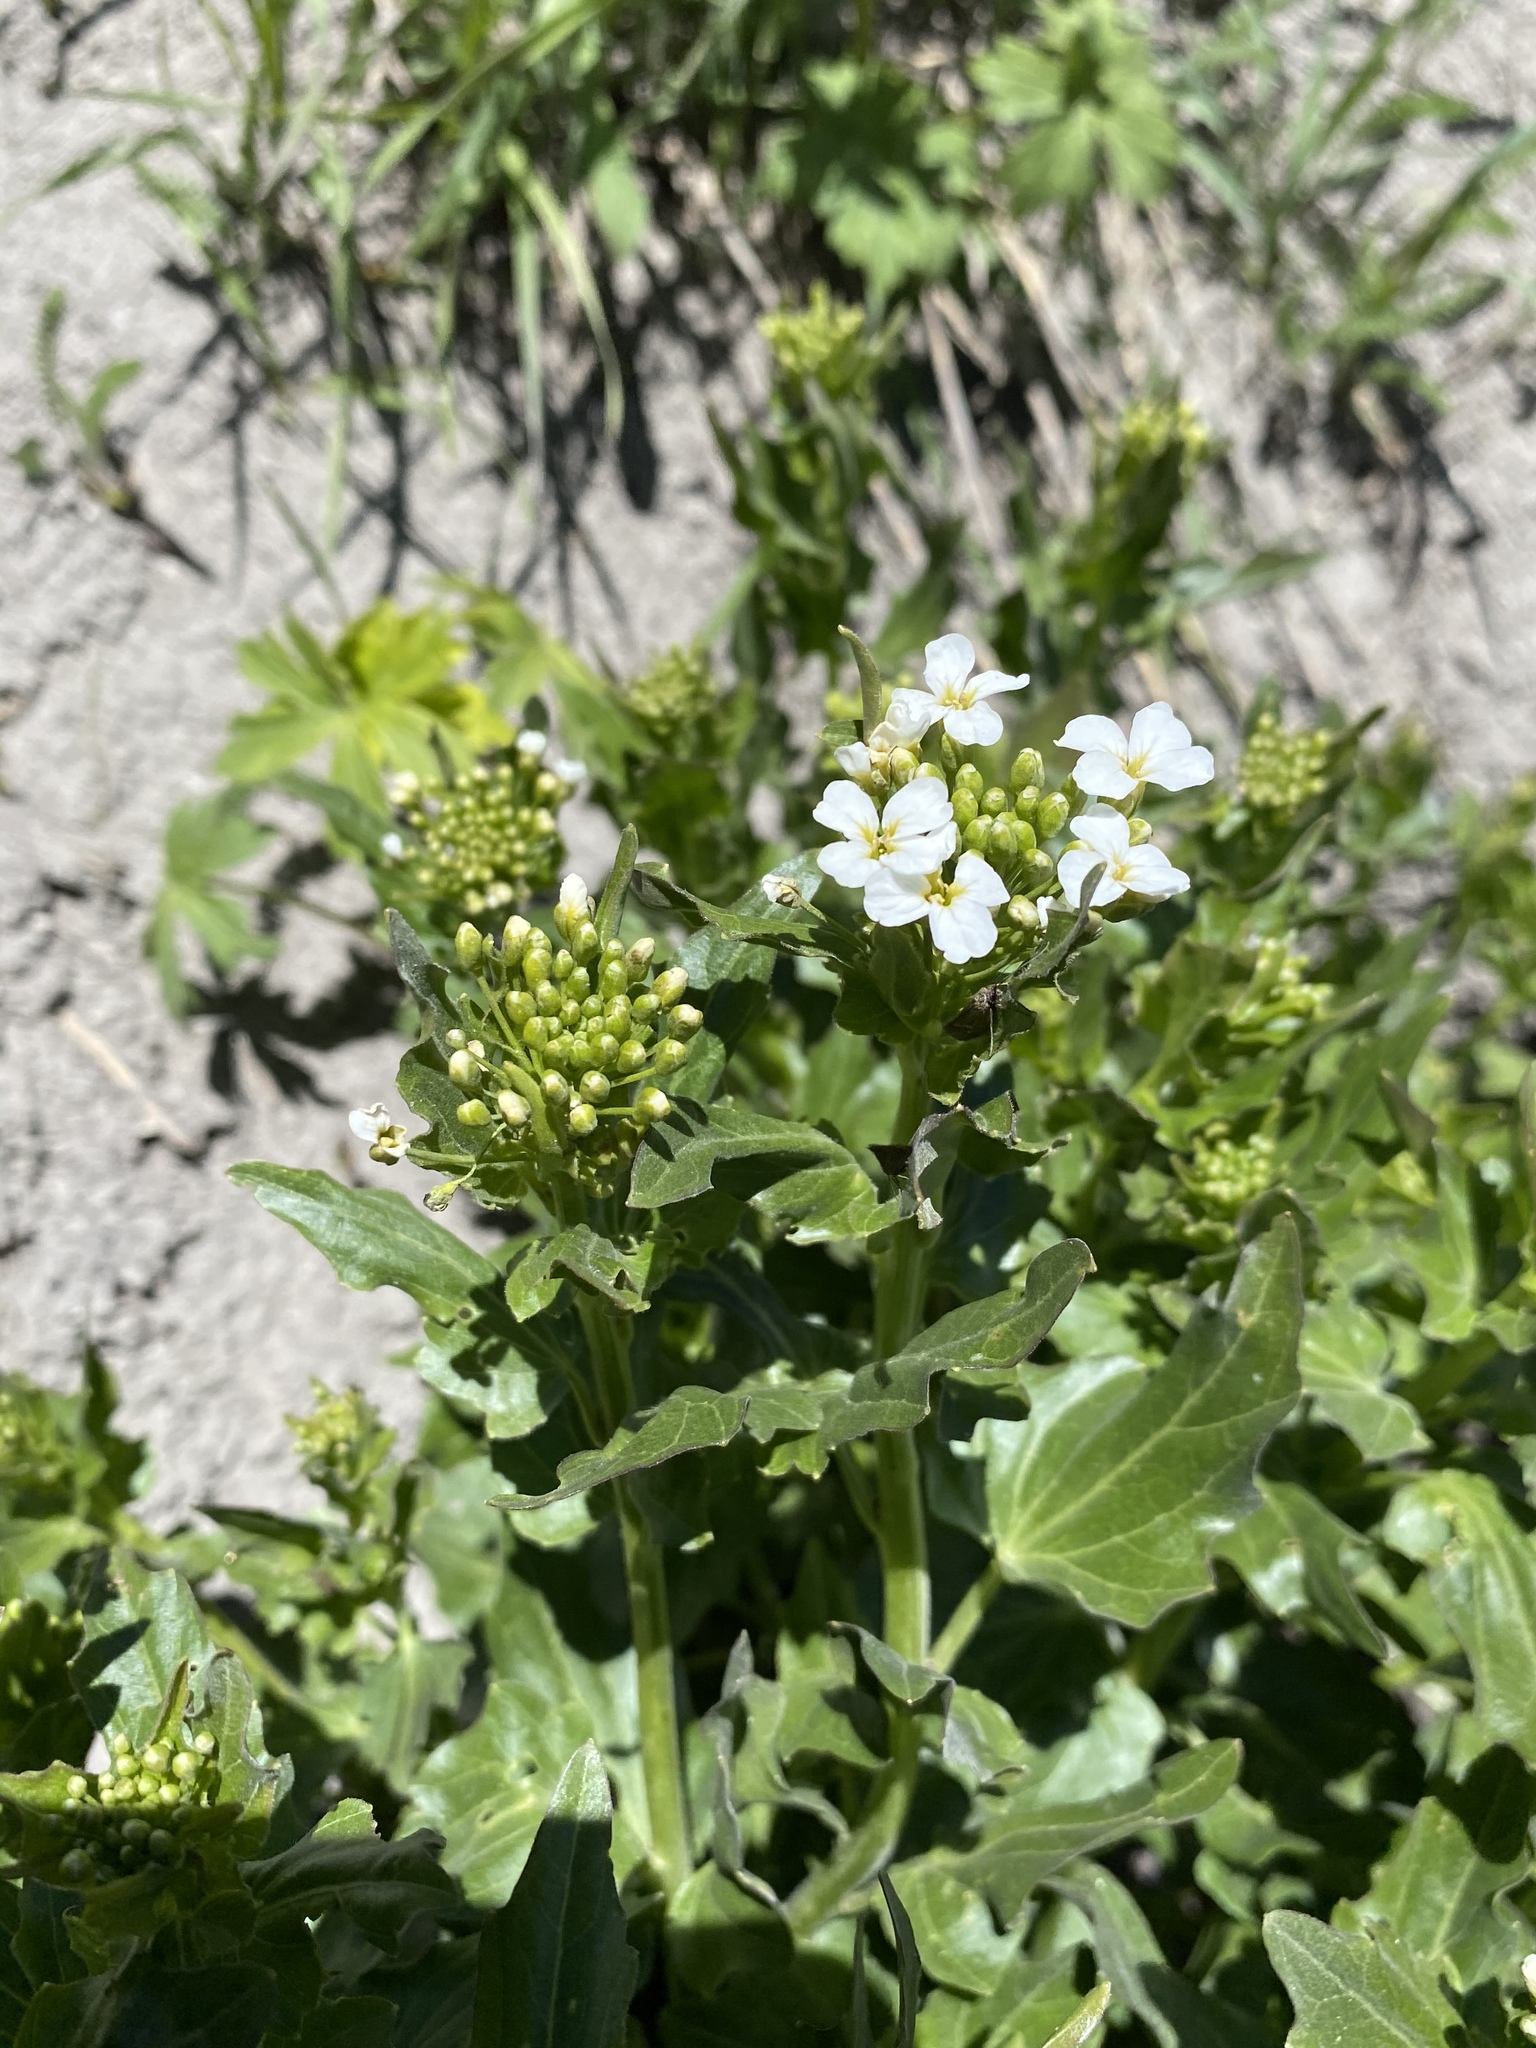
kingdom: Plantae
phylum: Tracheophyta
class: Magnoliopsida
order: Brassicales
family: Brassicaceae
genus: Cardamine
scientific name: Cardamine cordifolia
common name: Heart-leaf bittercress
